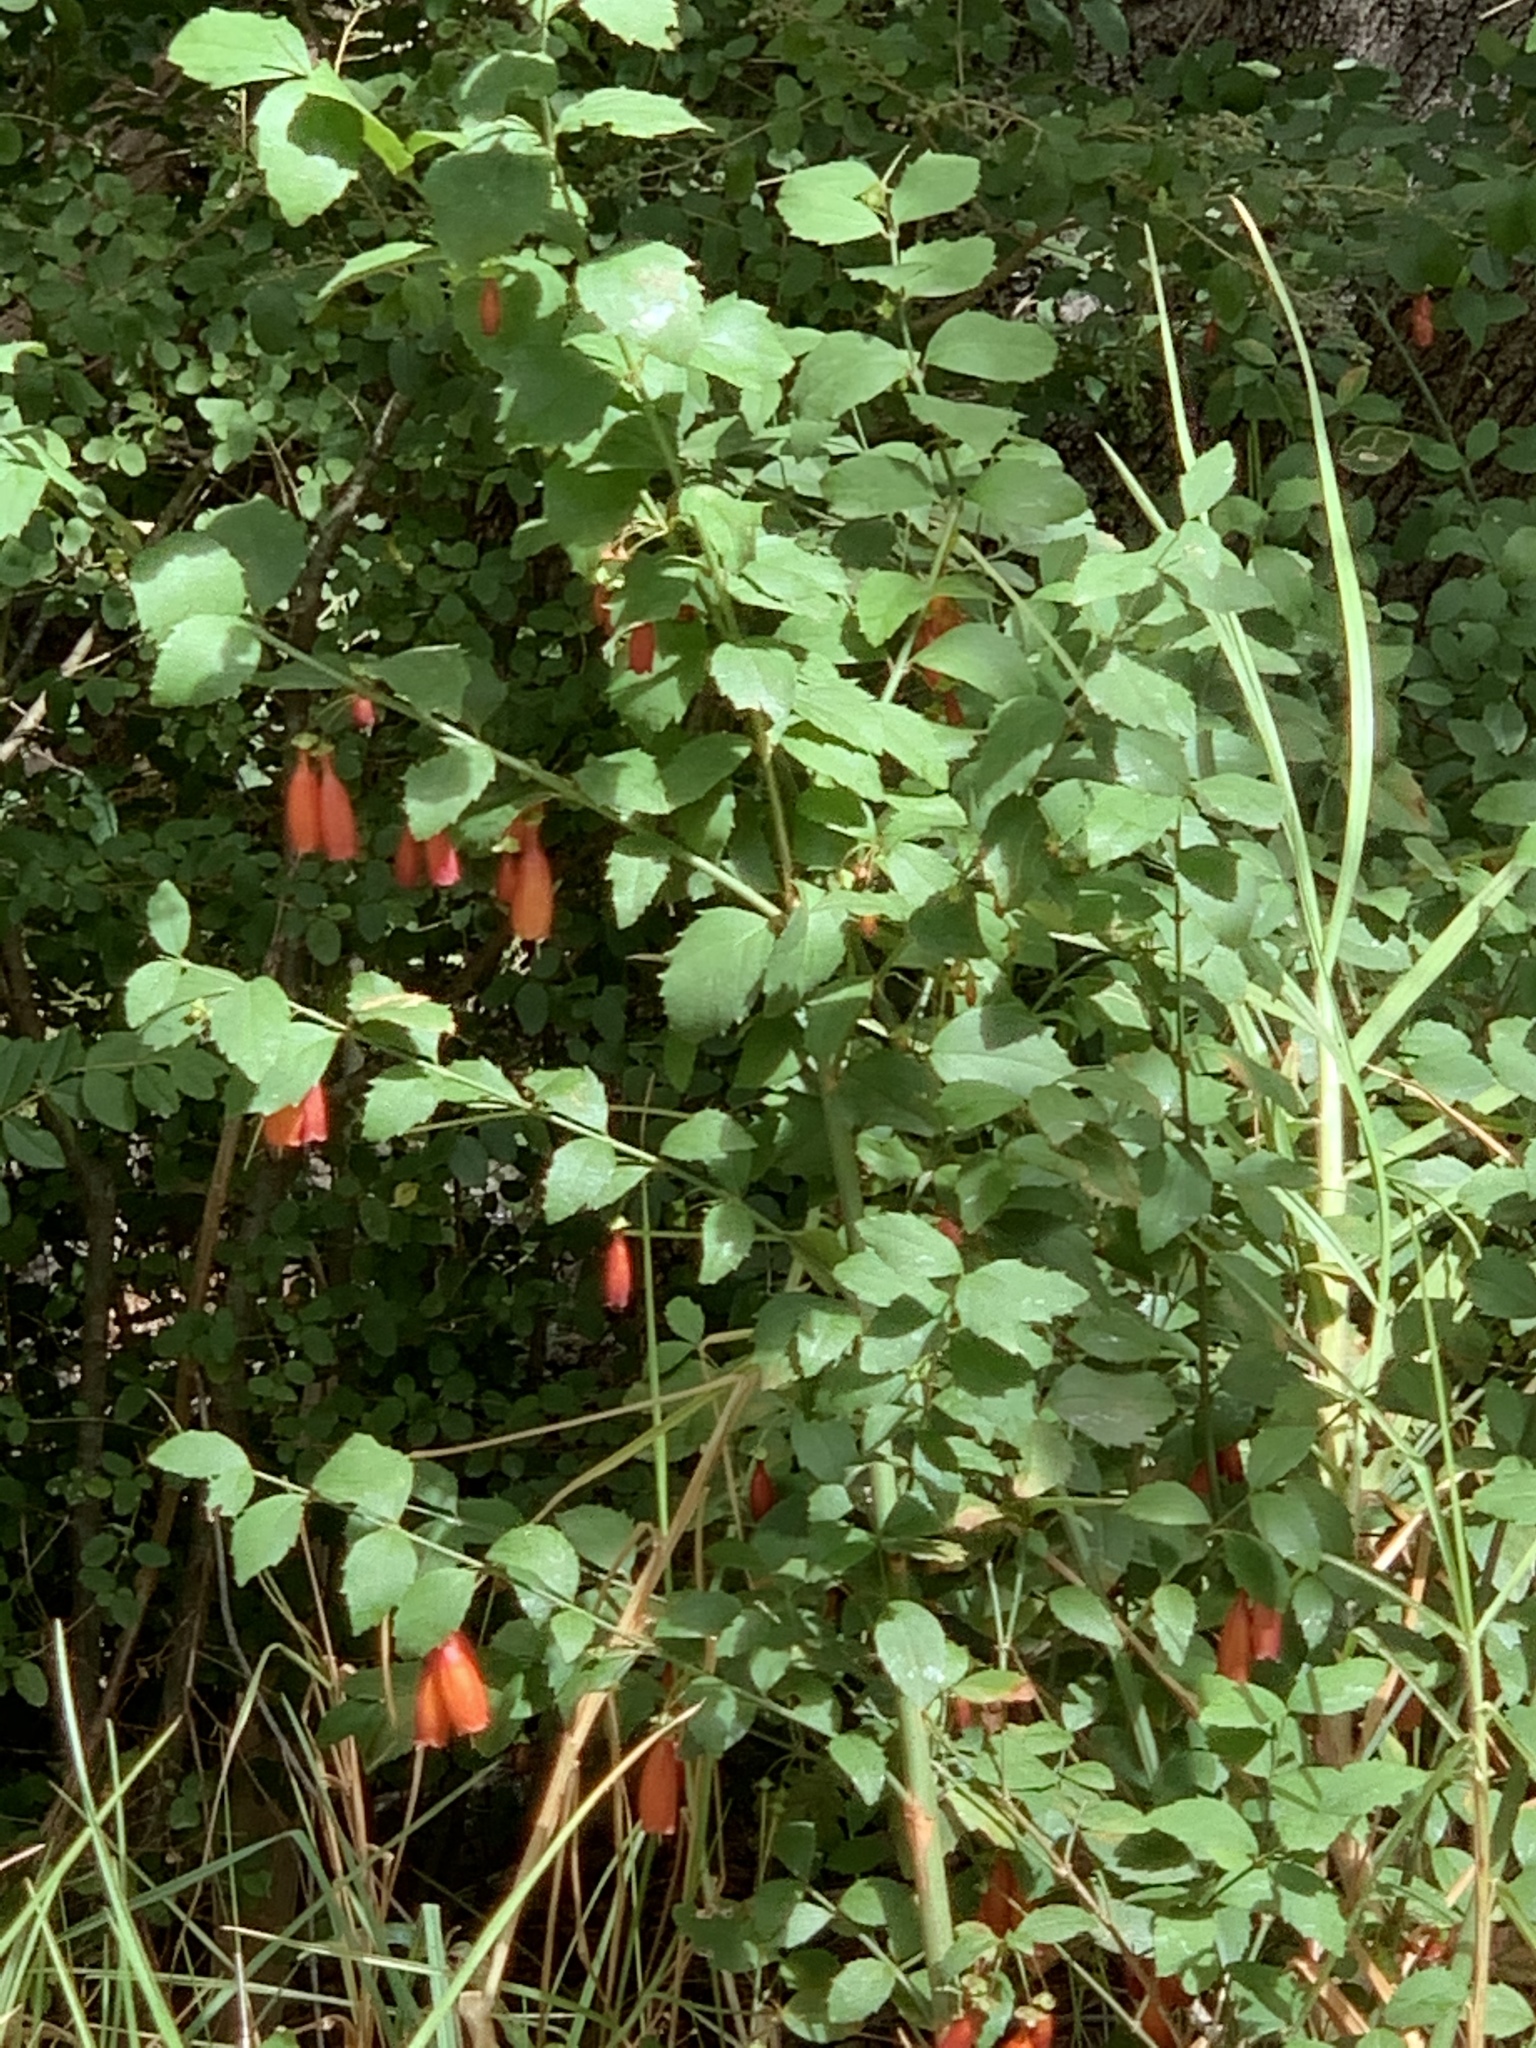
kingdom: Plantae
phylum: Tracheophyta
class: Magnoliopsida
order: Lamiales
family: Stilbaceae
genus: Halleria
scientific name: Halleria elliptica
